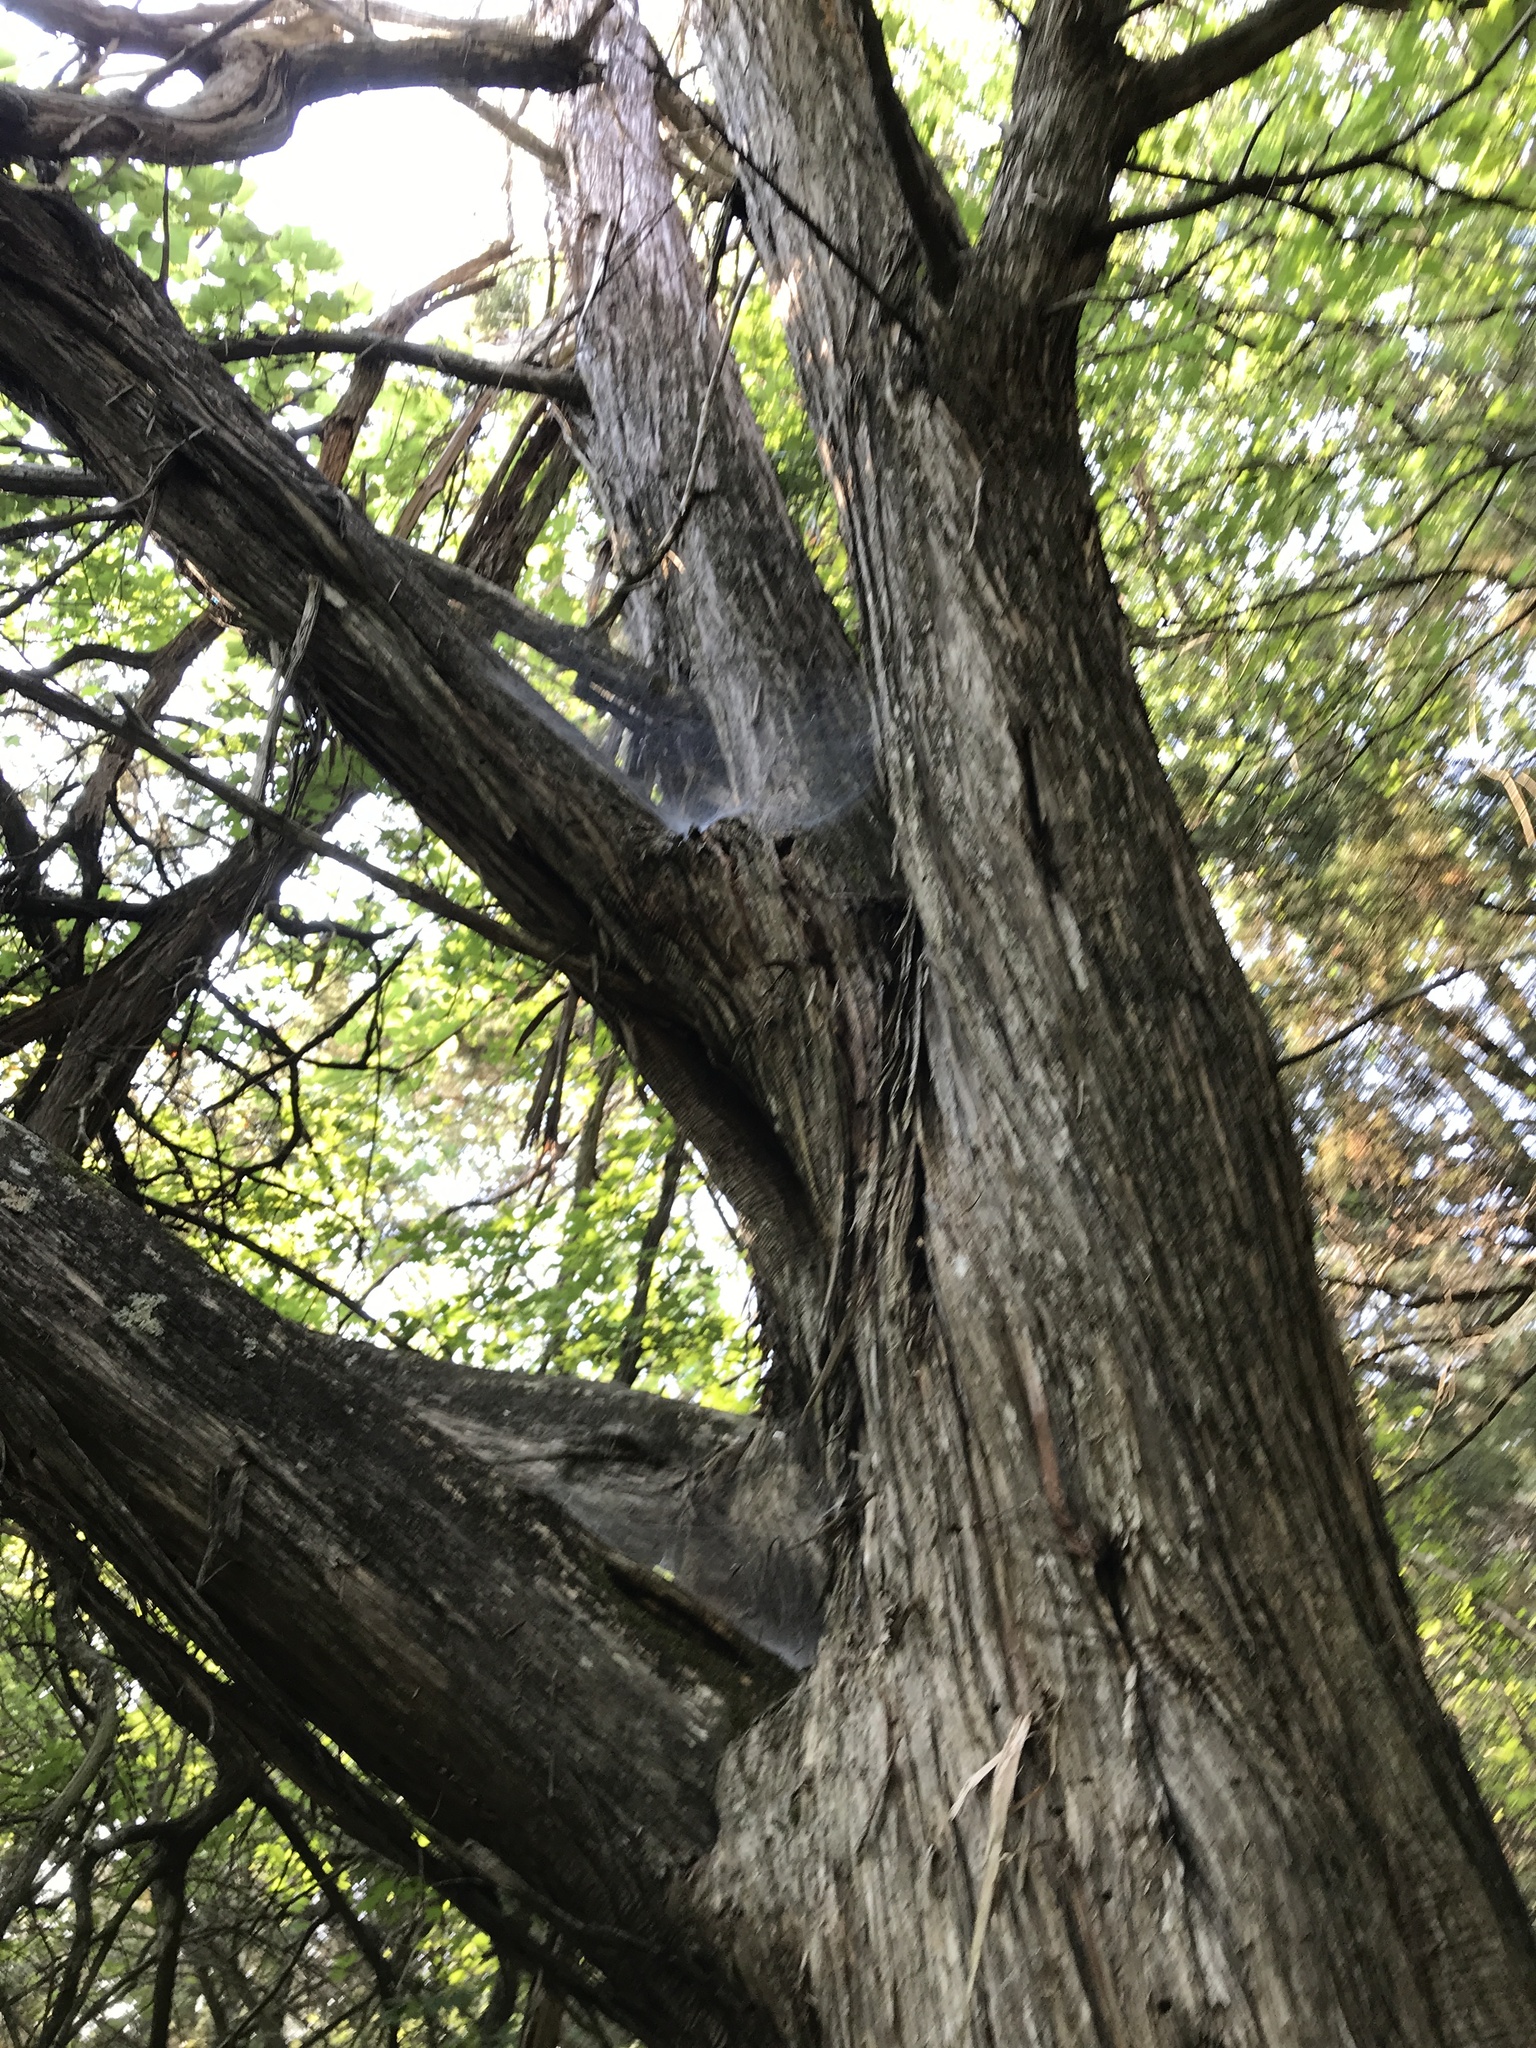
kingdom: Plantae
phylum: Tracheophyta
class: Pinopsida
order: Pinales
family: Cupressaceae
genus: Juniperus
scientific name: Juniperus ashei
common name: Mexican juniper
